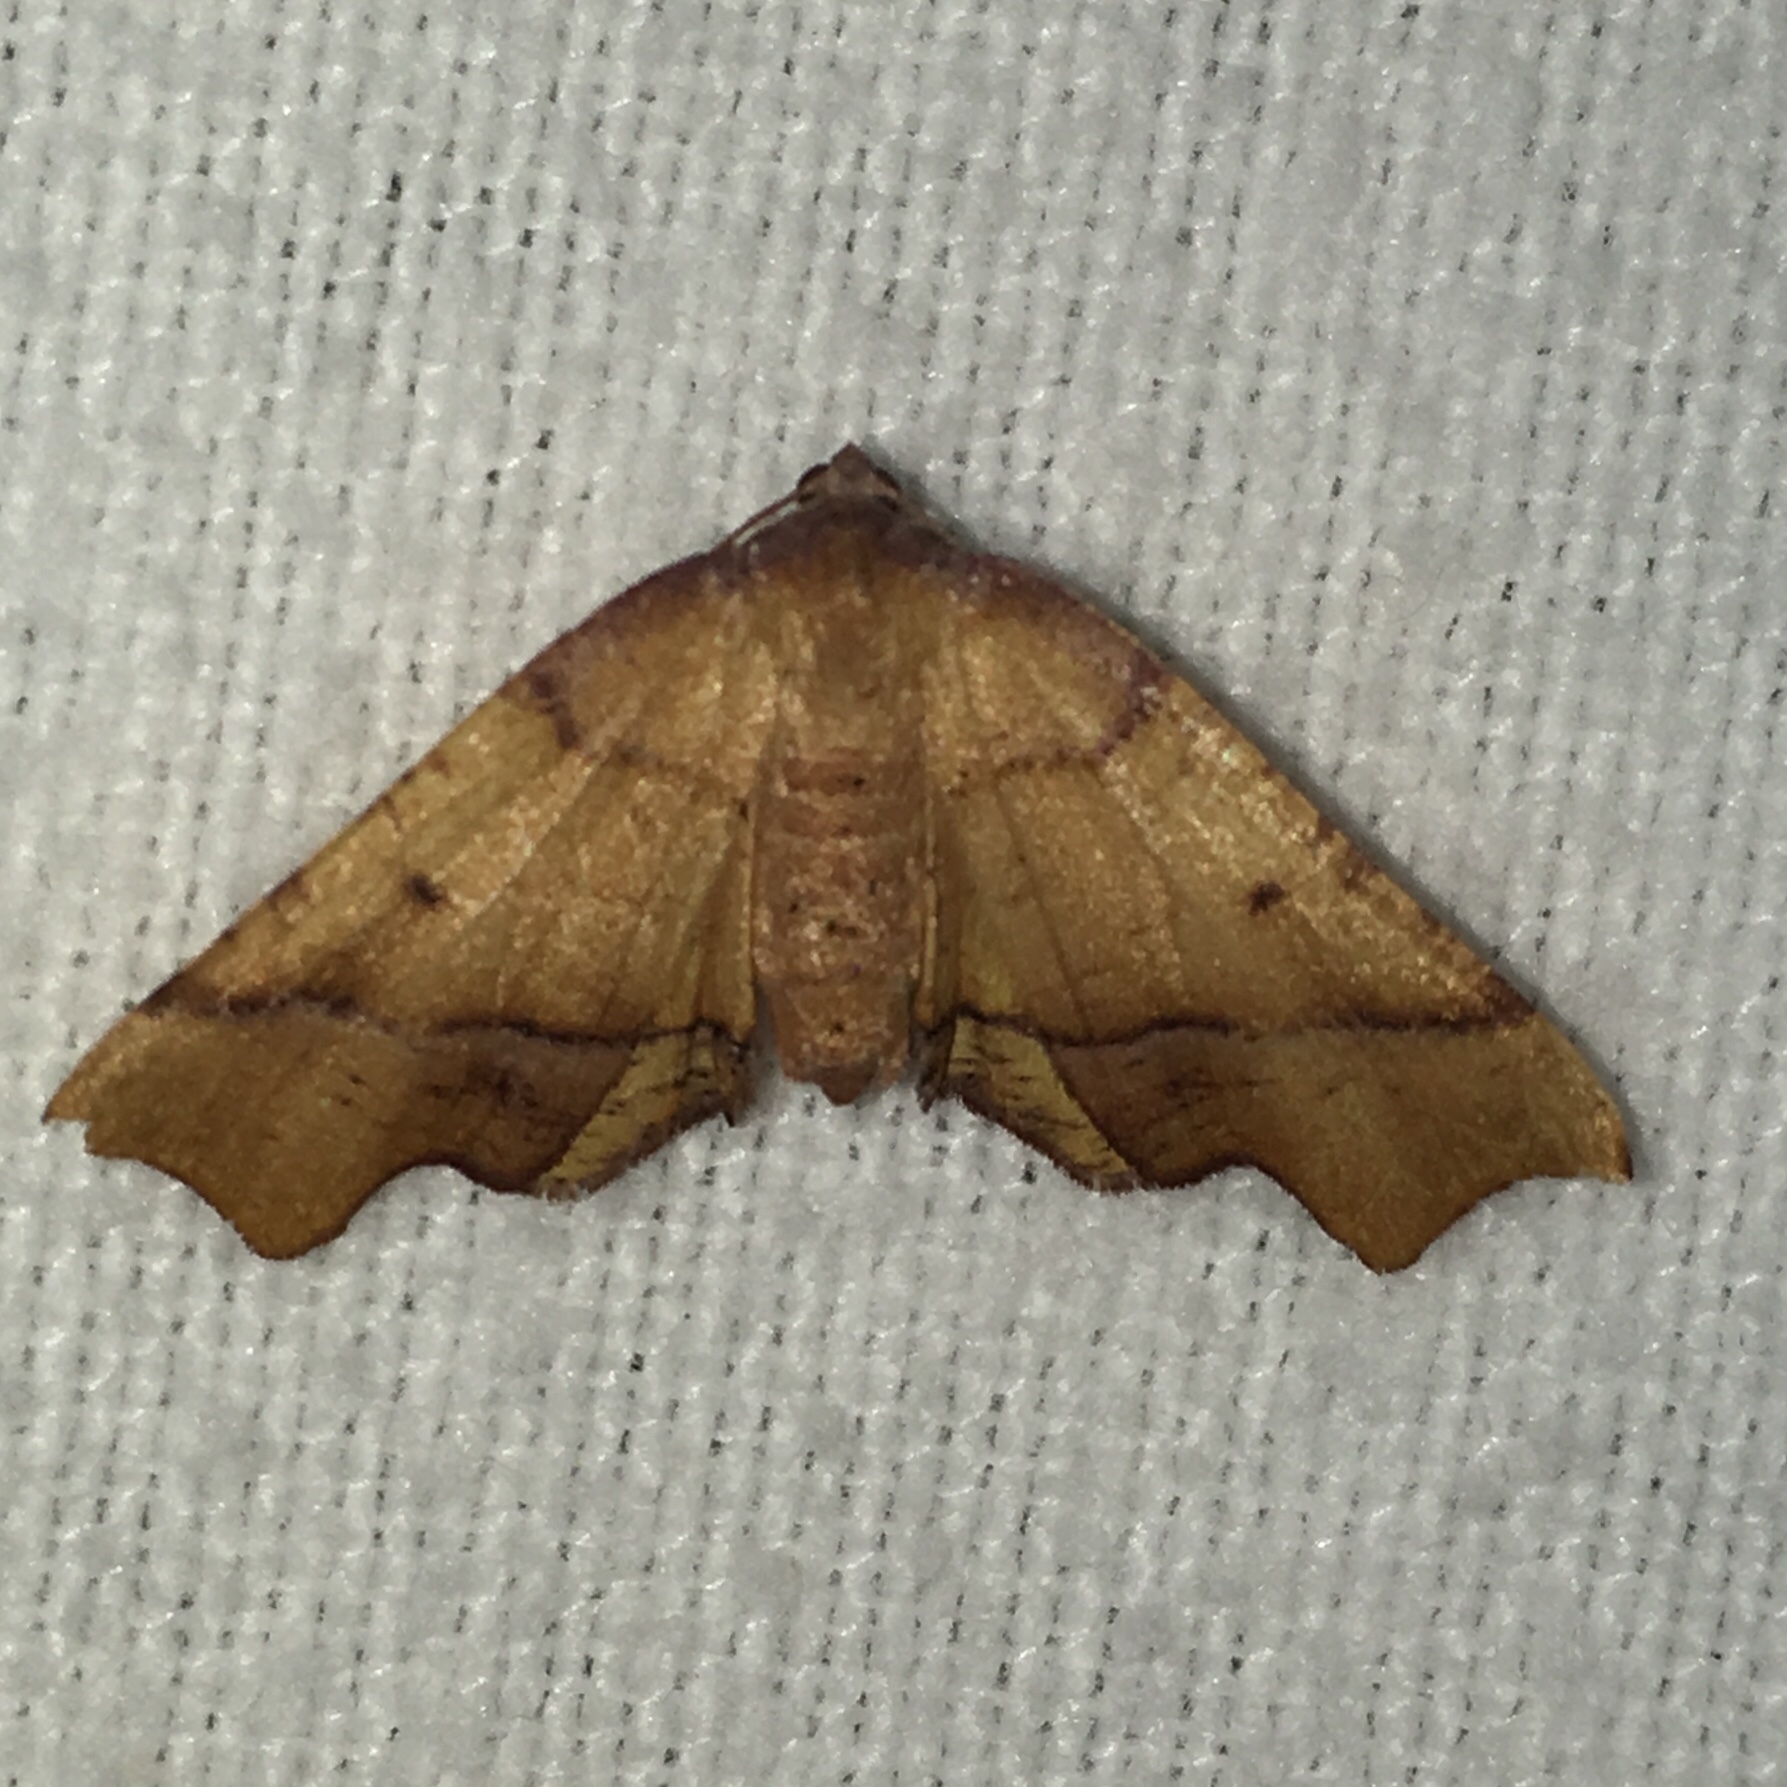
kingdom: Animalia
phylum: Arthropoda
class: Insecta
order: Lepidoptera
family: Geometridae
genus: Plagodis
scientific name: Plagodis phlogosaria
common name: Straight-lined plagodis
